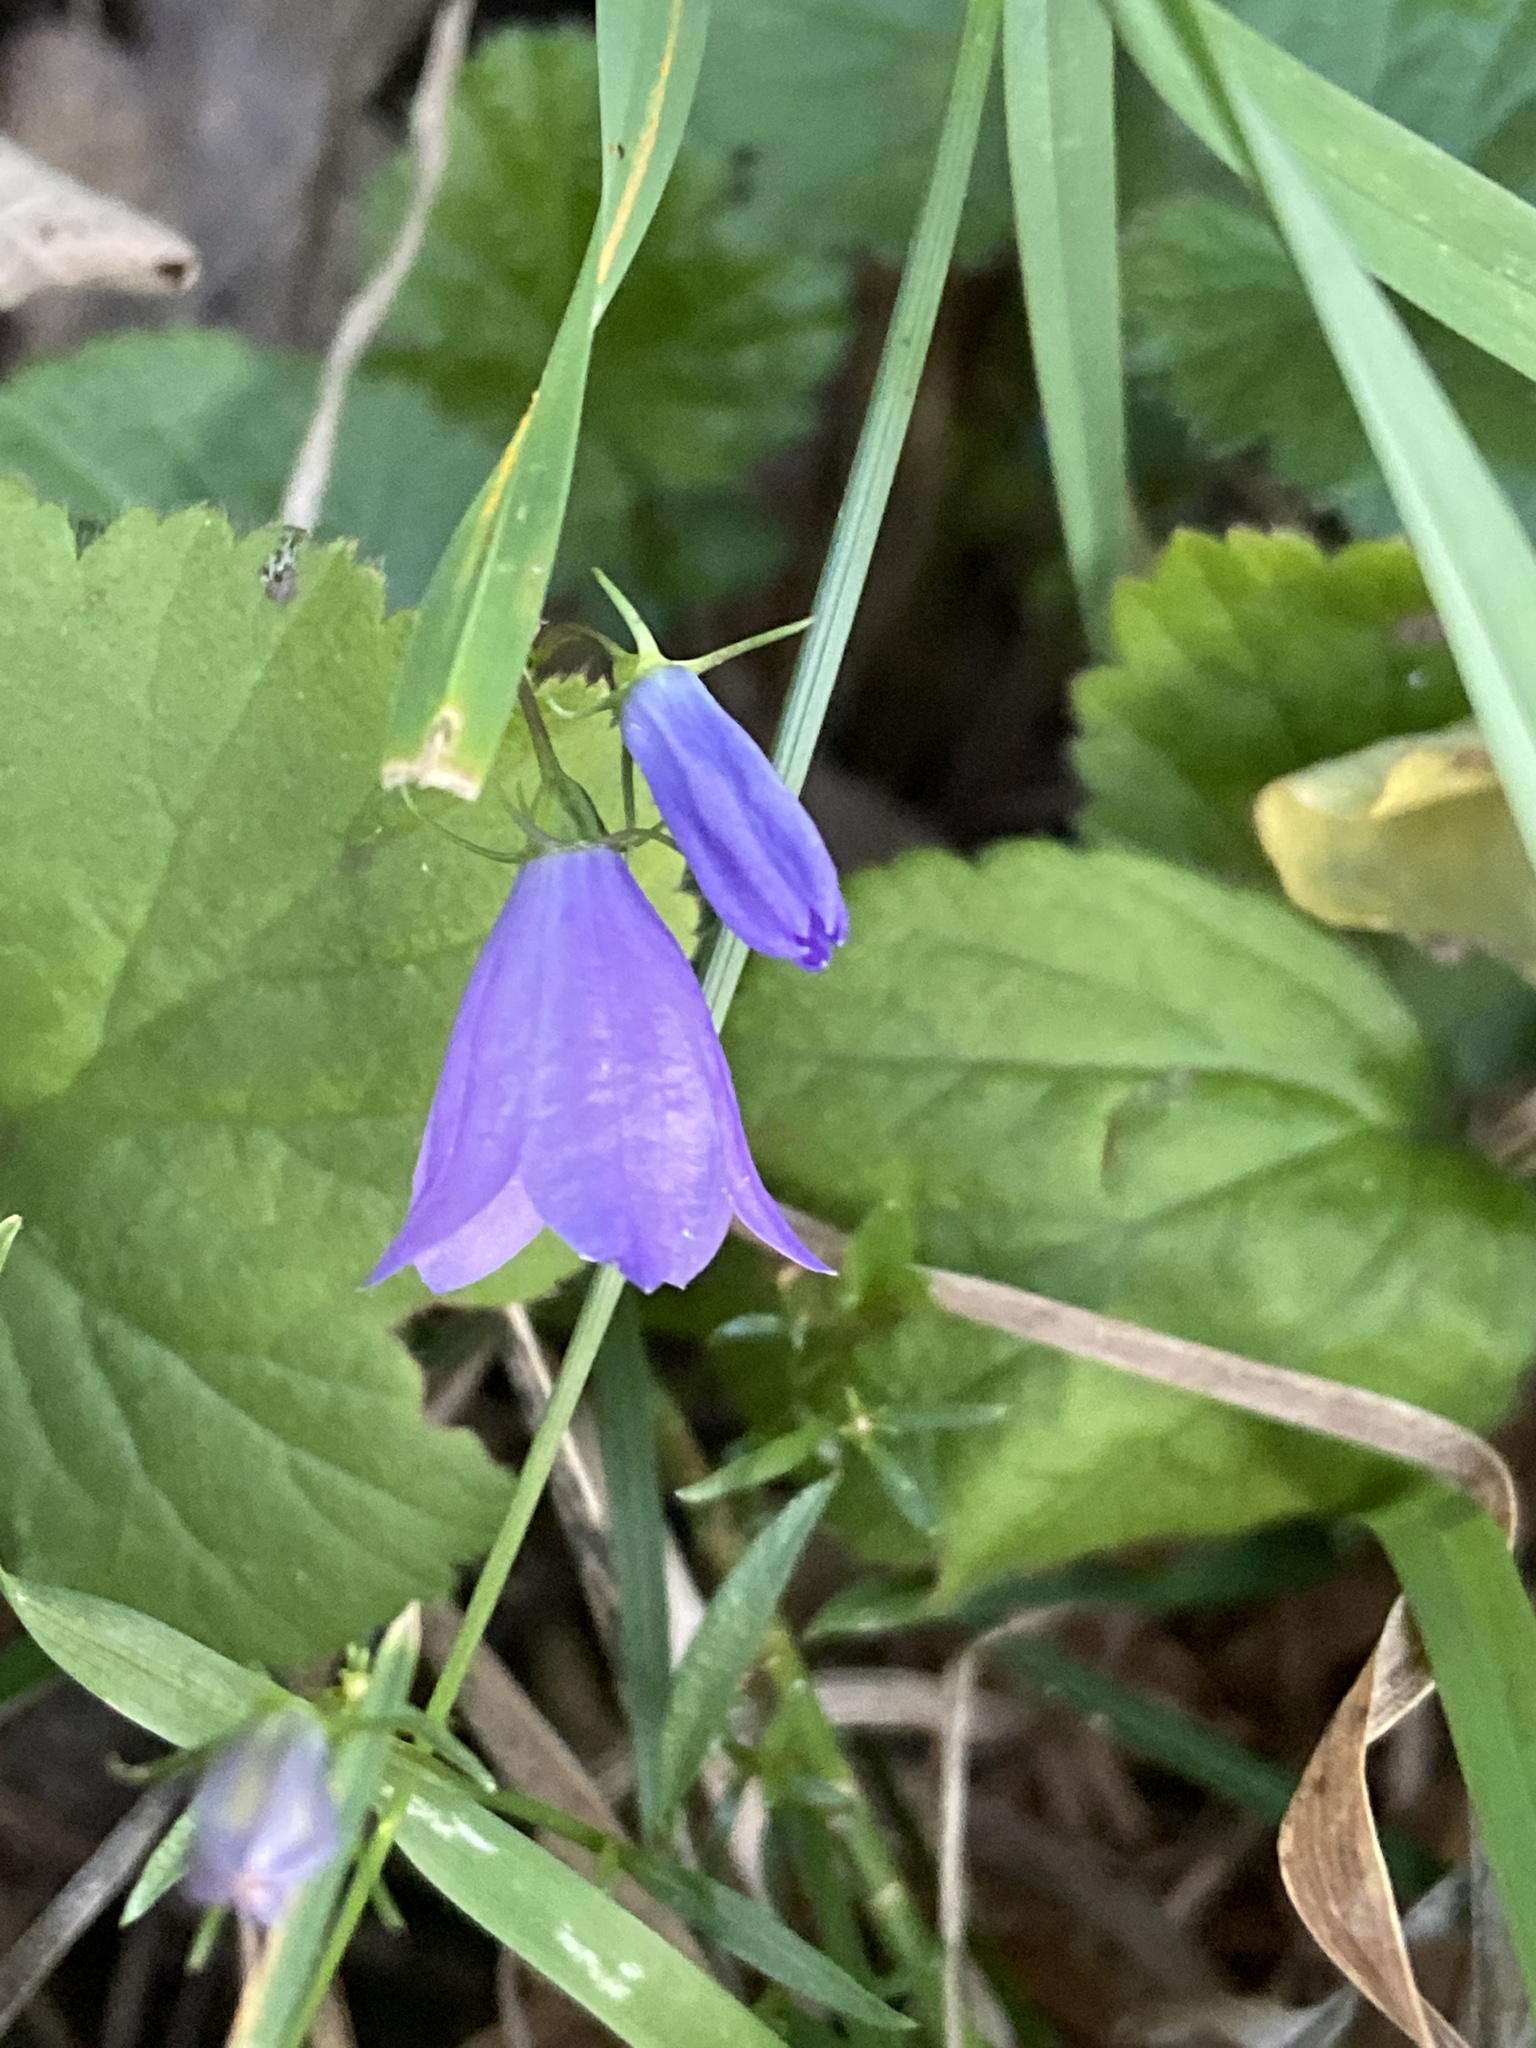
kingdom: Plantae
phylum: Tracheophyta
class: Magnoliopsida
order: Asterales
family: Campanulaceae
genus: Campanula
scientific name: Campanula rotundifolia
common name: Harebell
